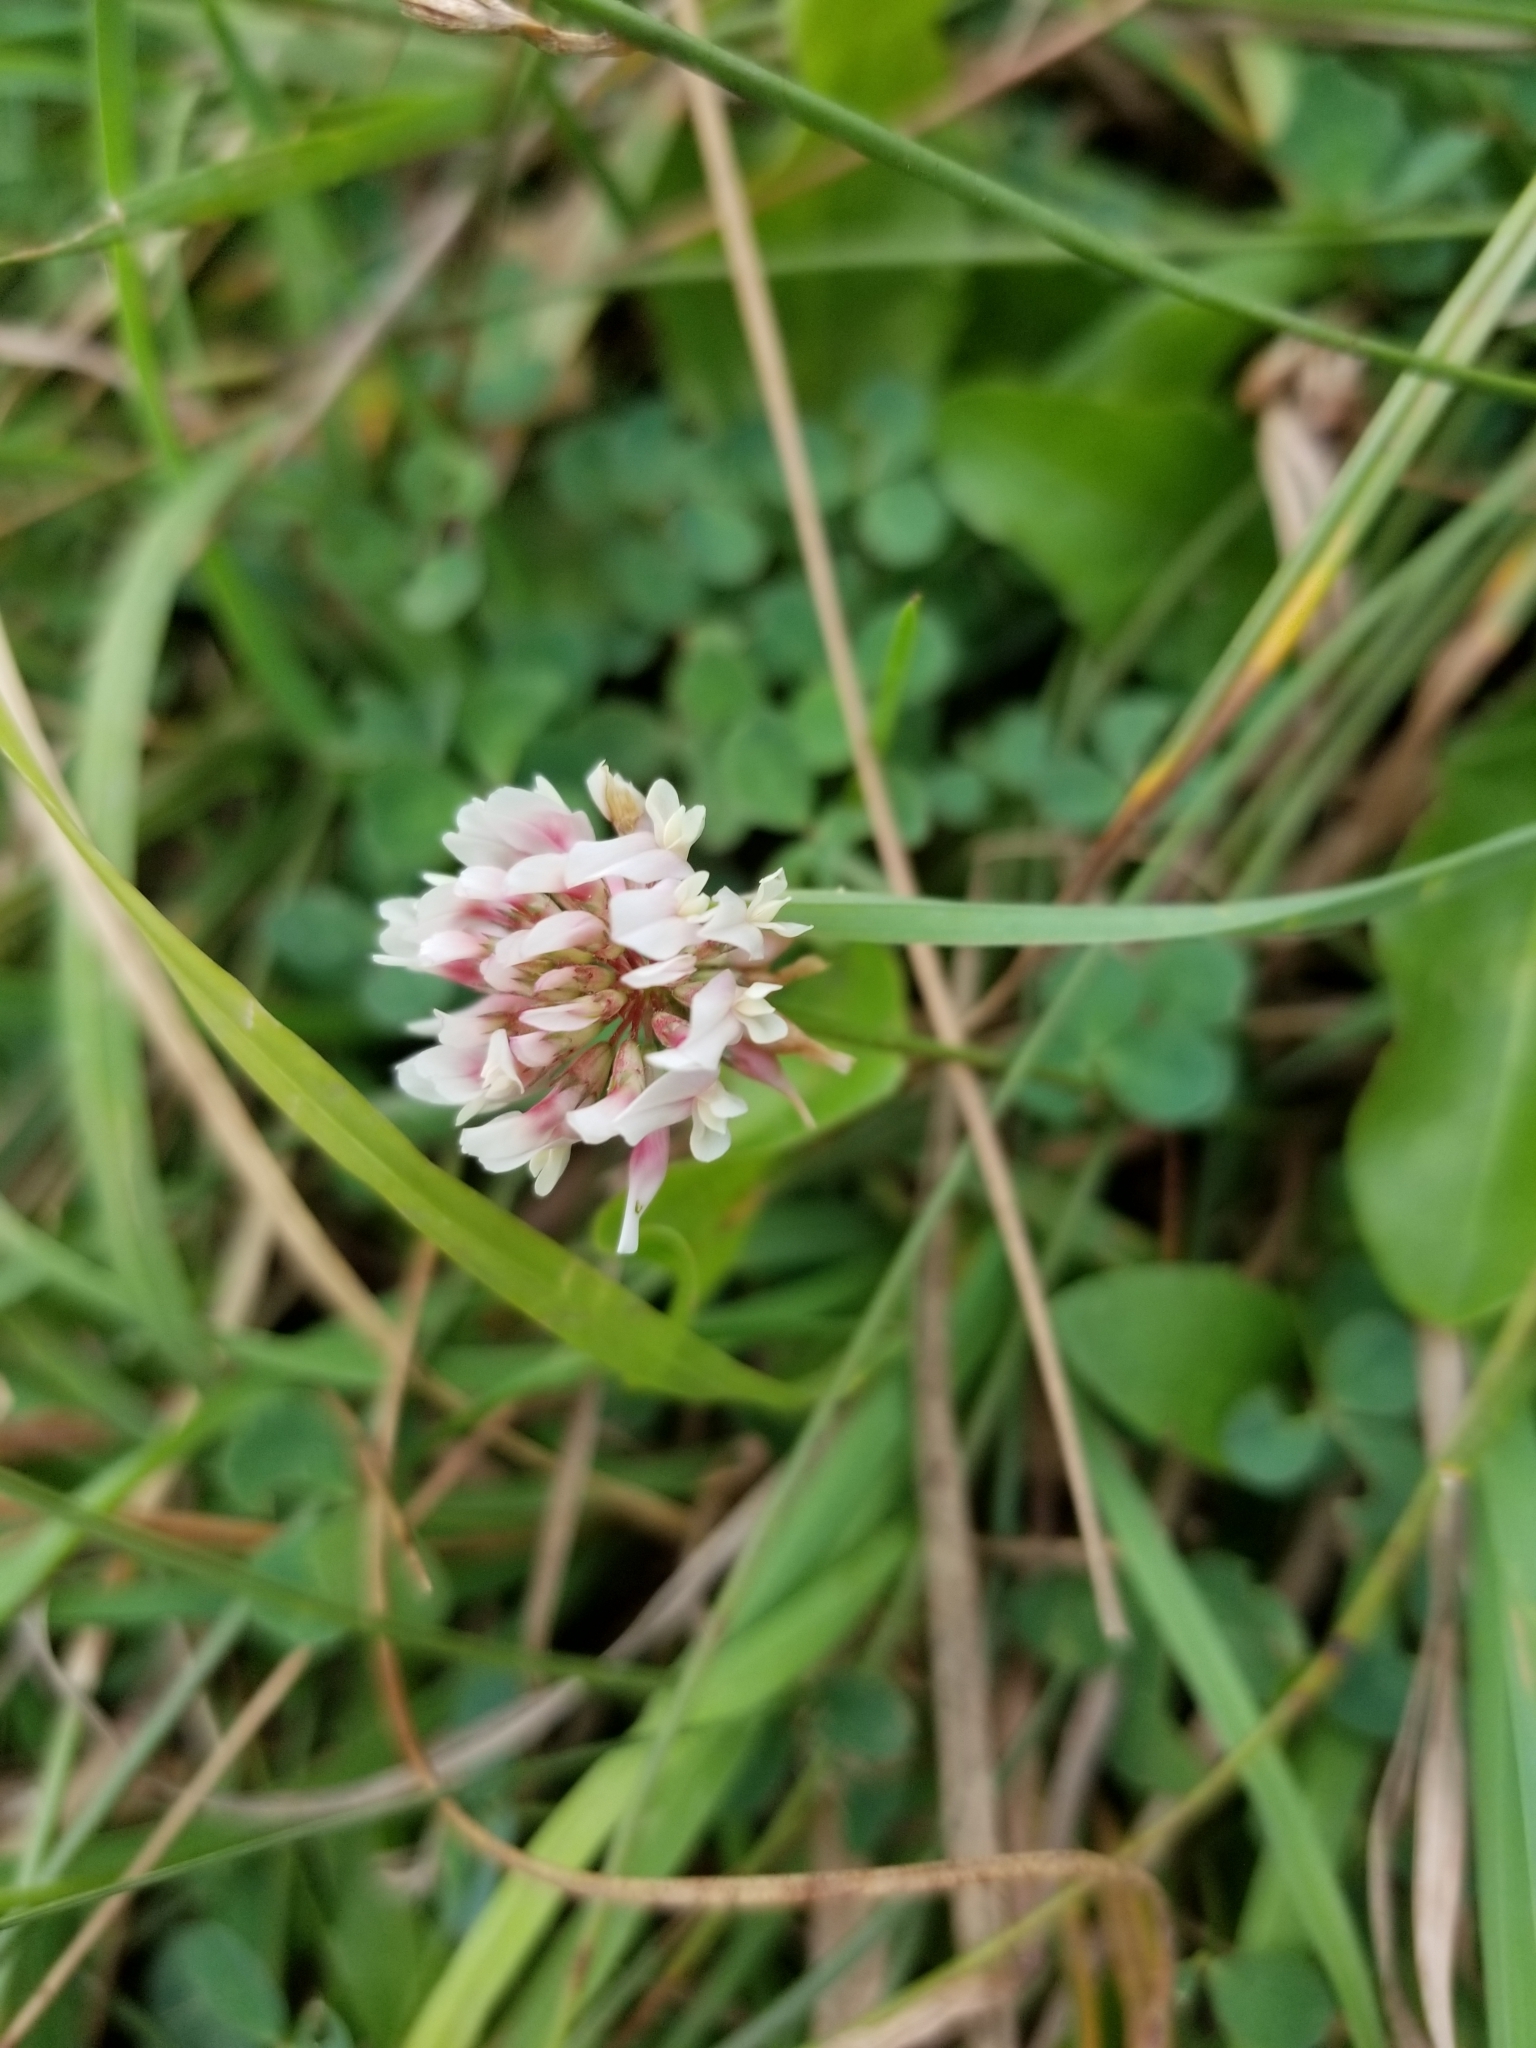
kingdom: Plantae
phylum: Tracheophyta
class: Magnoliopsida
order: Fabales
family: Fabaceae
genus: Trifolium
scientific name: Trifolium repens
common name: White clover
